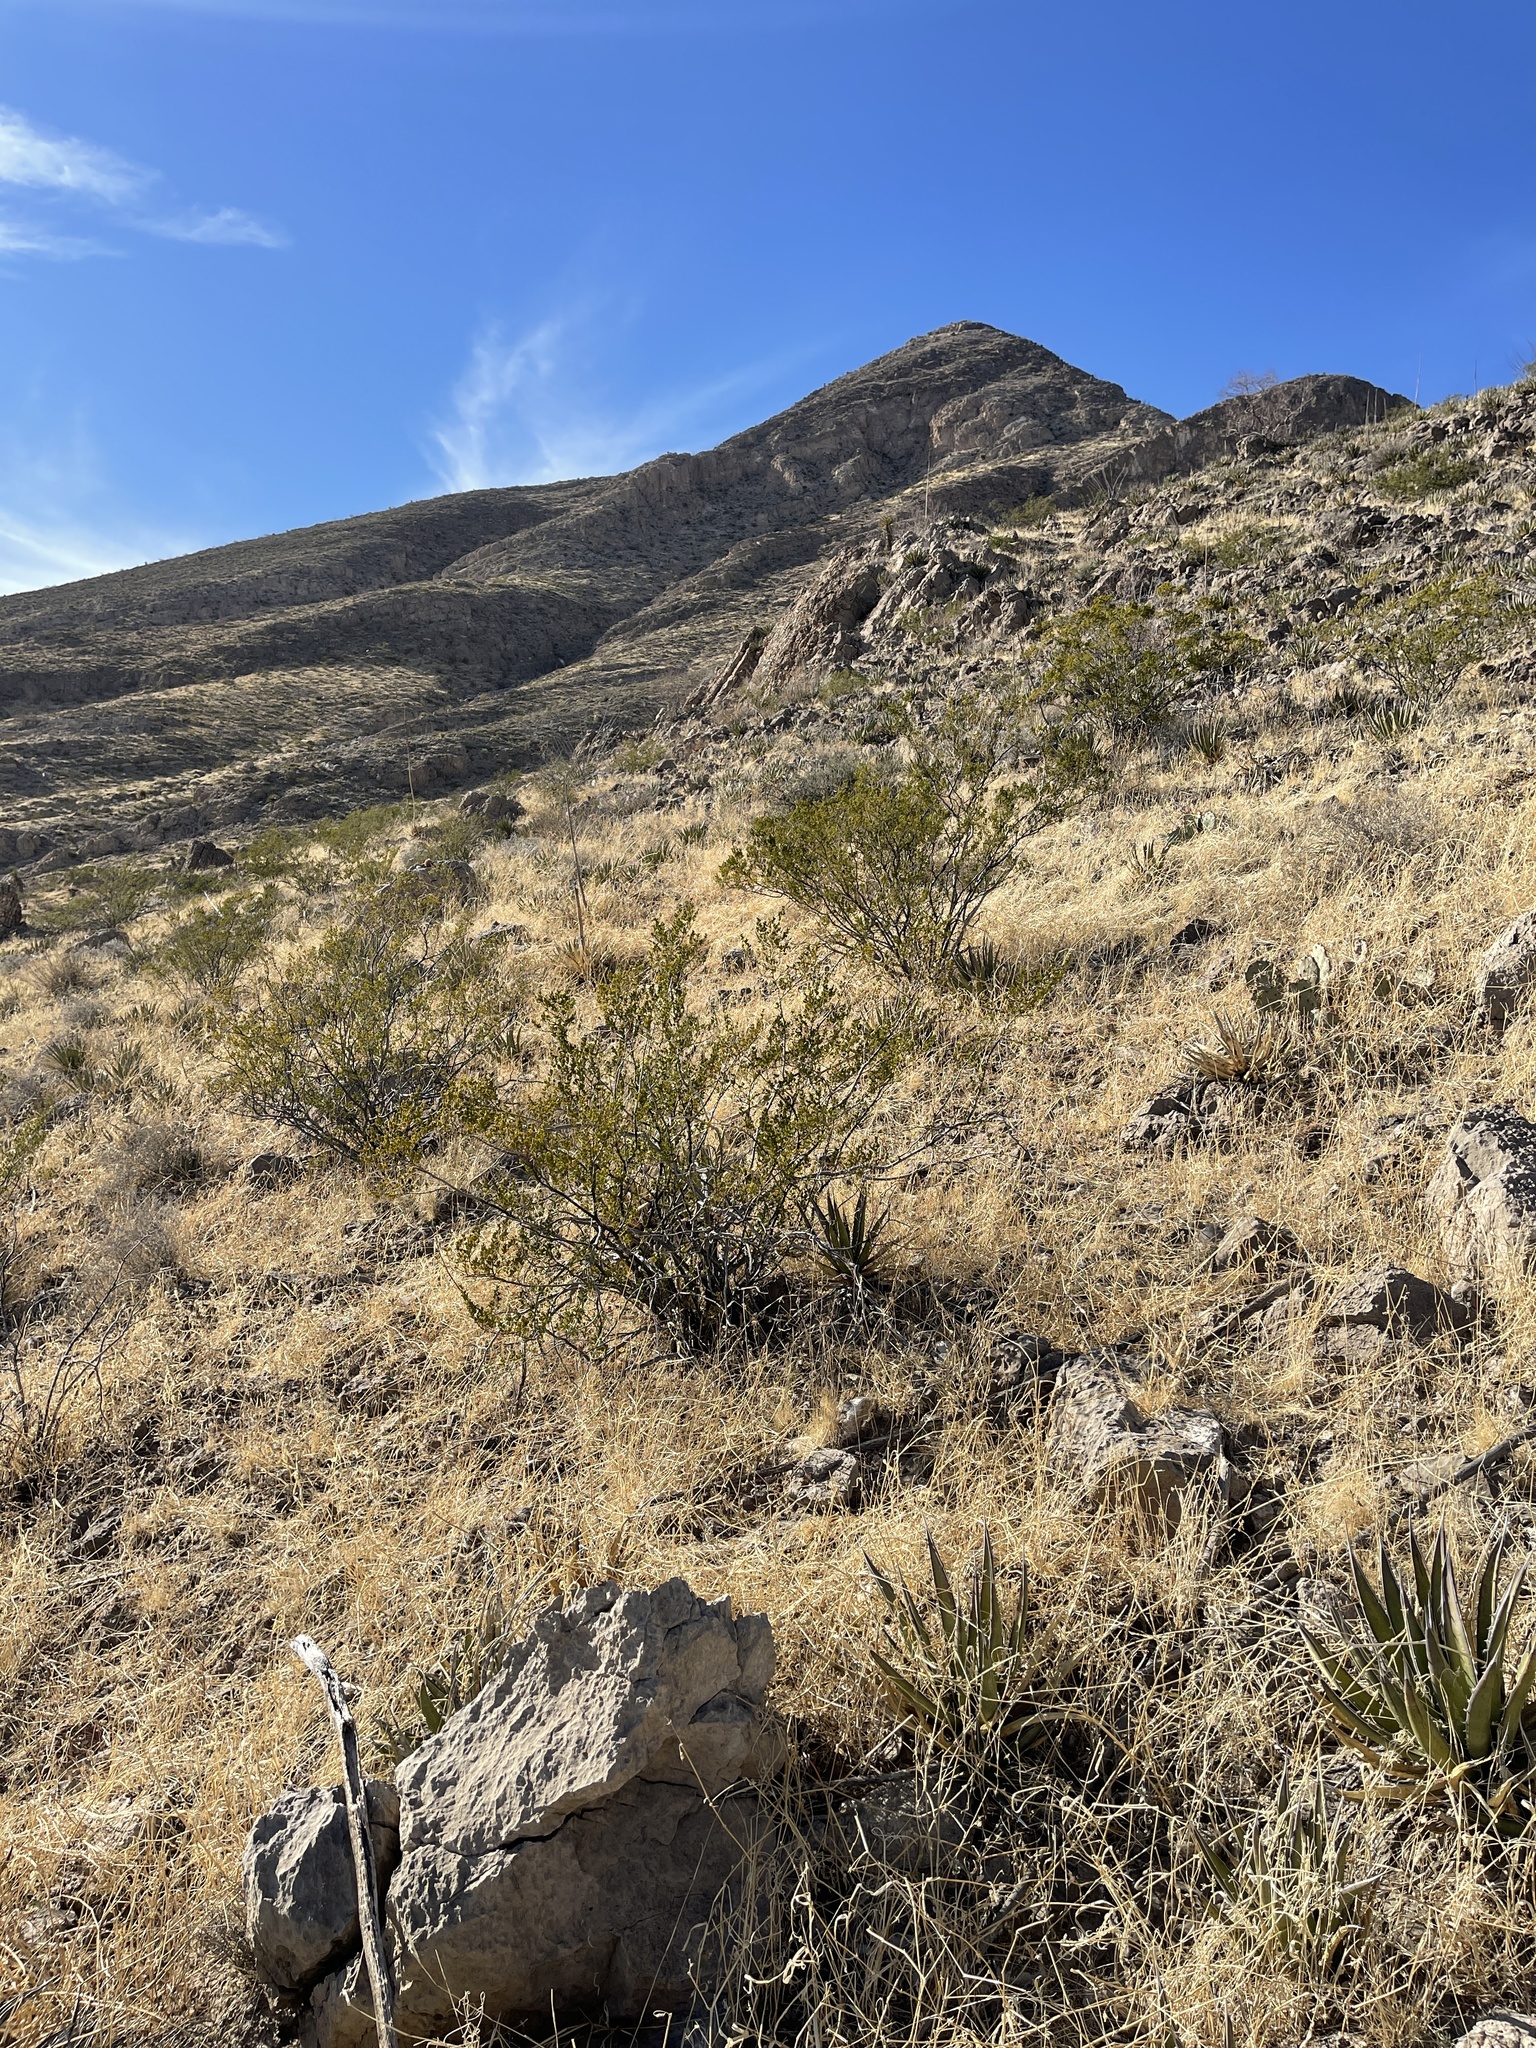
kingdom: Plantae
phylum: Tracheophyta
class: Magnoliopsida
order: Zygophyllales
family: Zygophyllaceae
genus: Larrea
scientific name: Larrea tridentata
